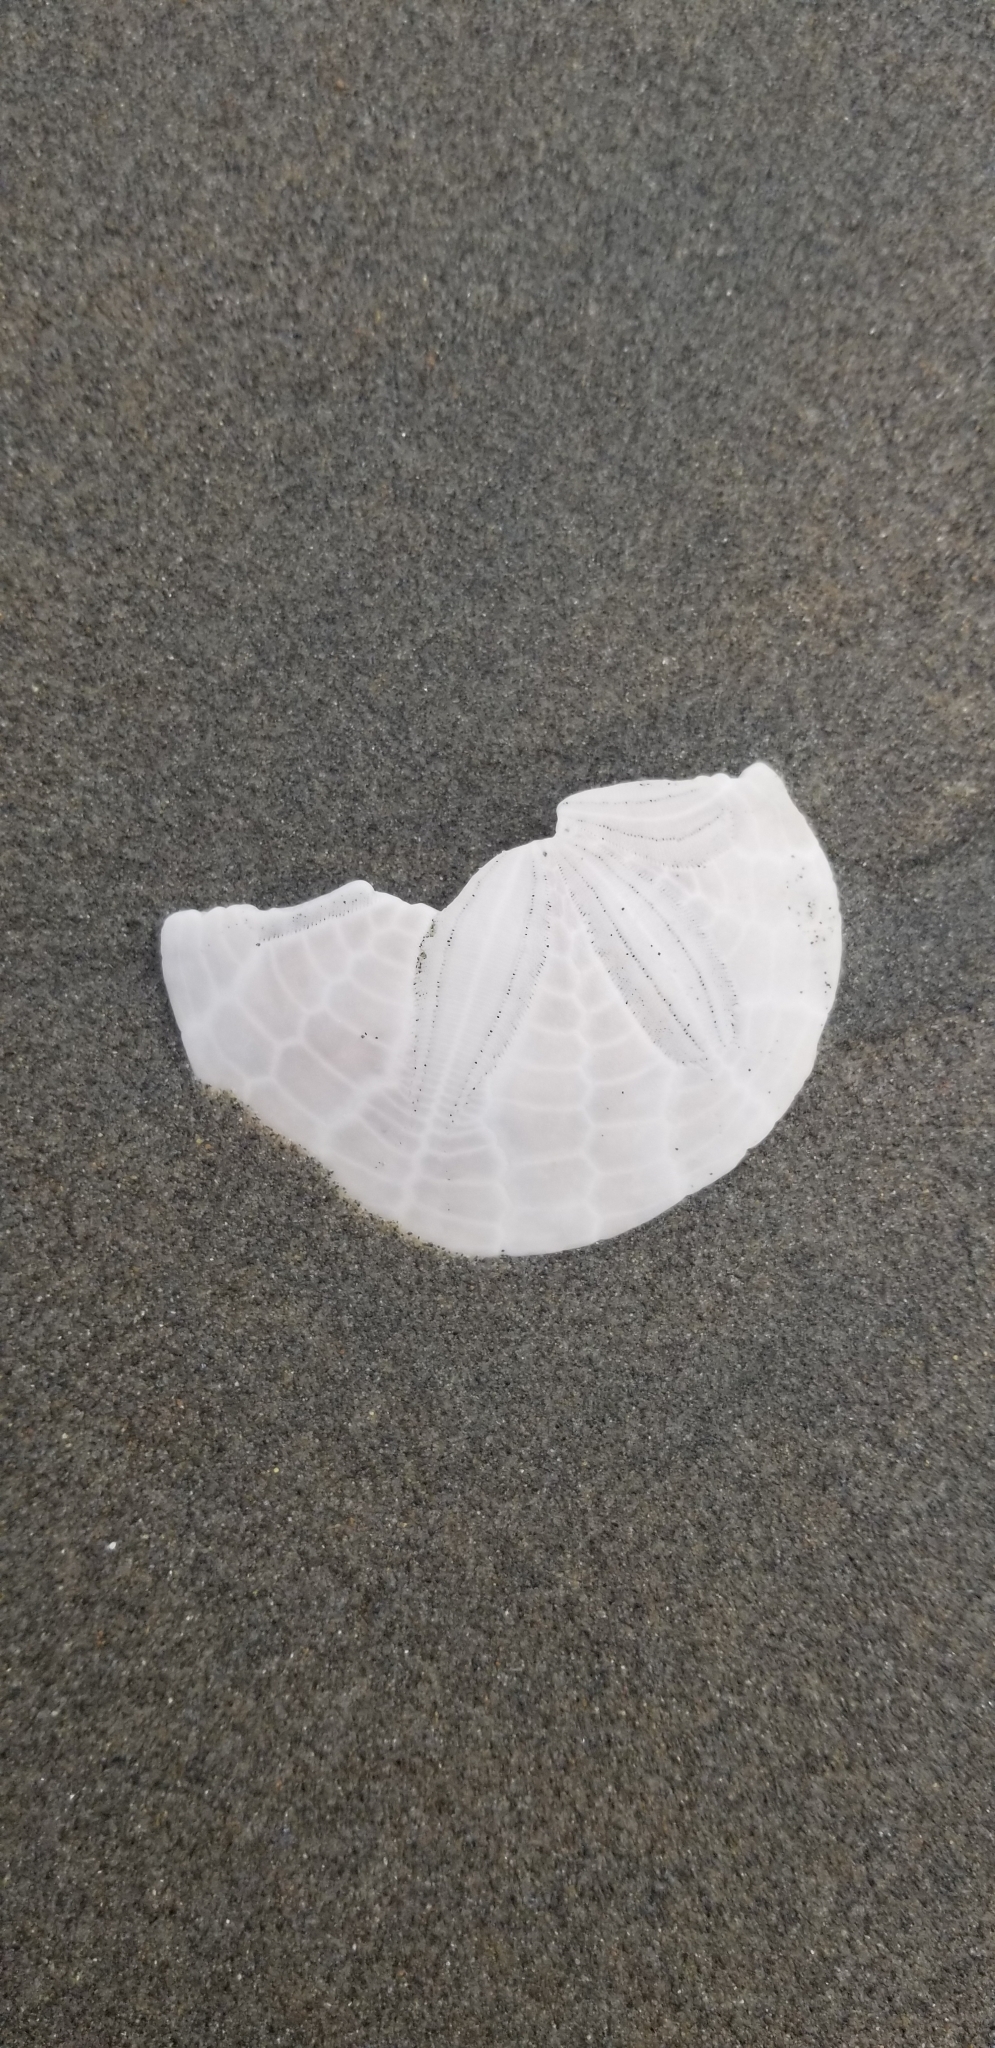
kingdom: Animalia
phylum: Echinodermata
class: Echinoidea
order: Echinolampadacea
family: Dendrasteridae
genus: Dendraster
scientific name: Dendraster excentricus
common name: Eccentric sand dollar sea urchin
